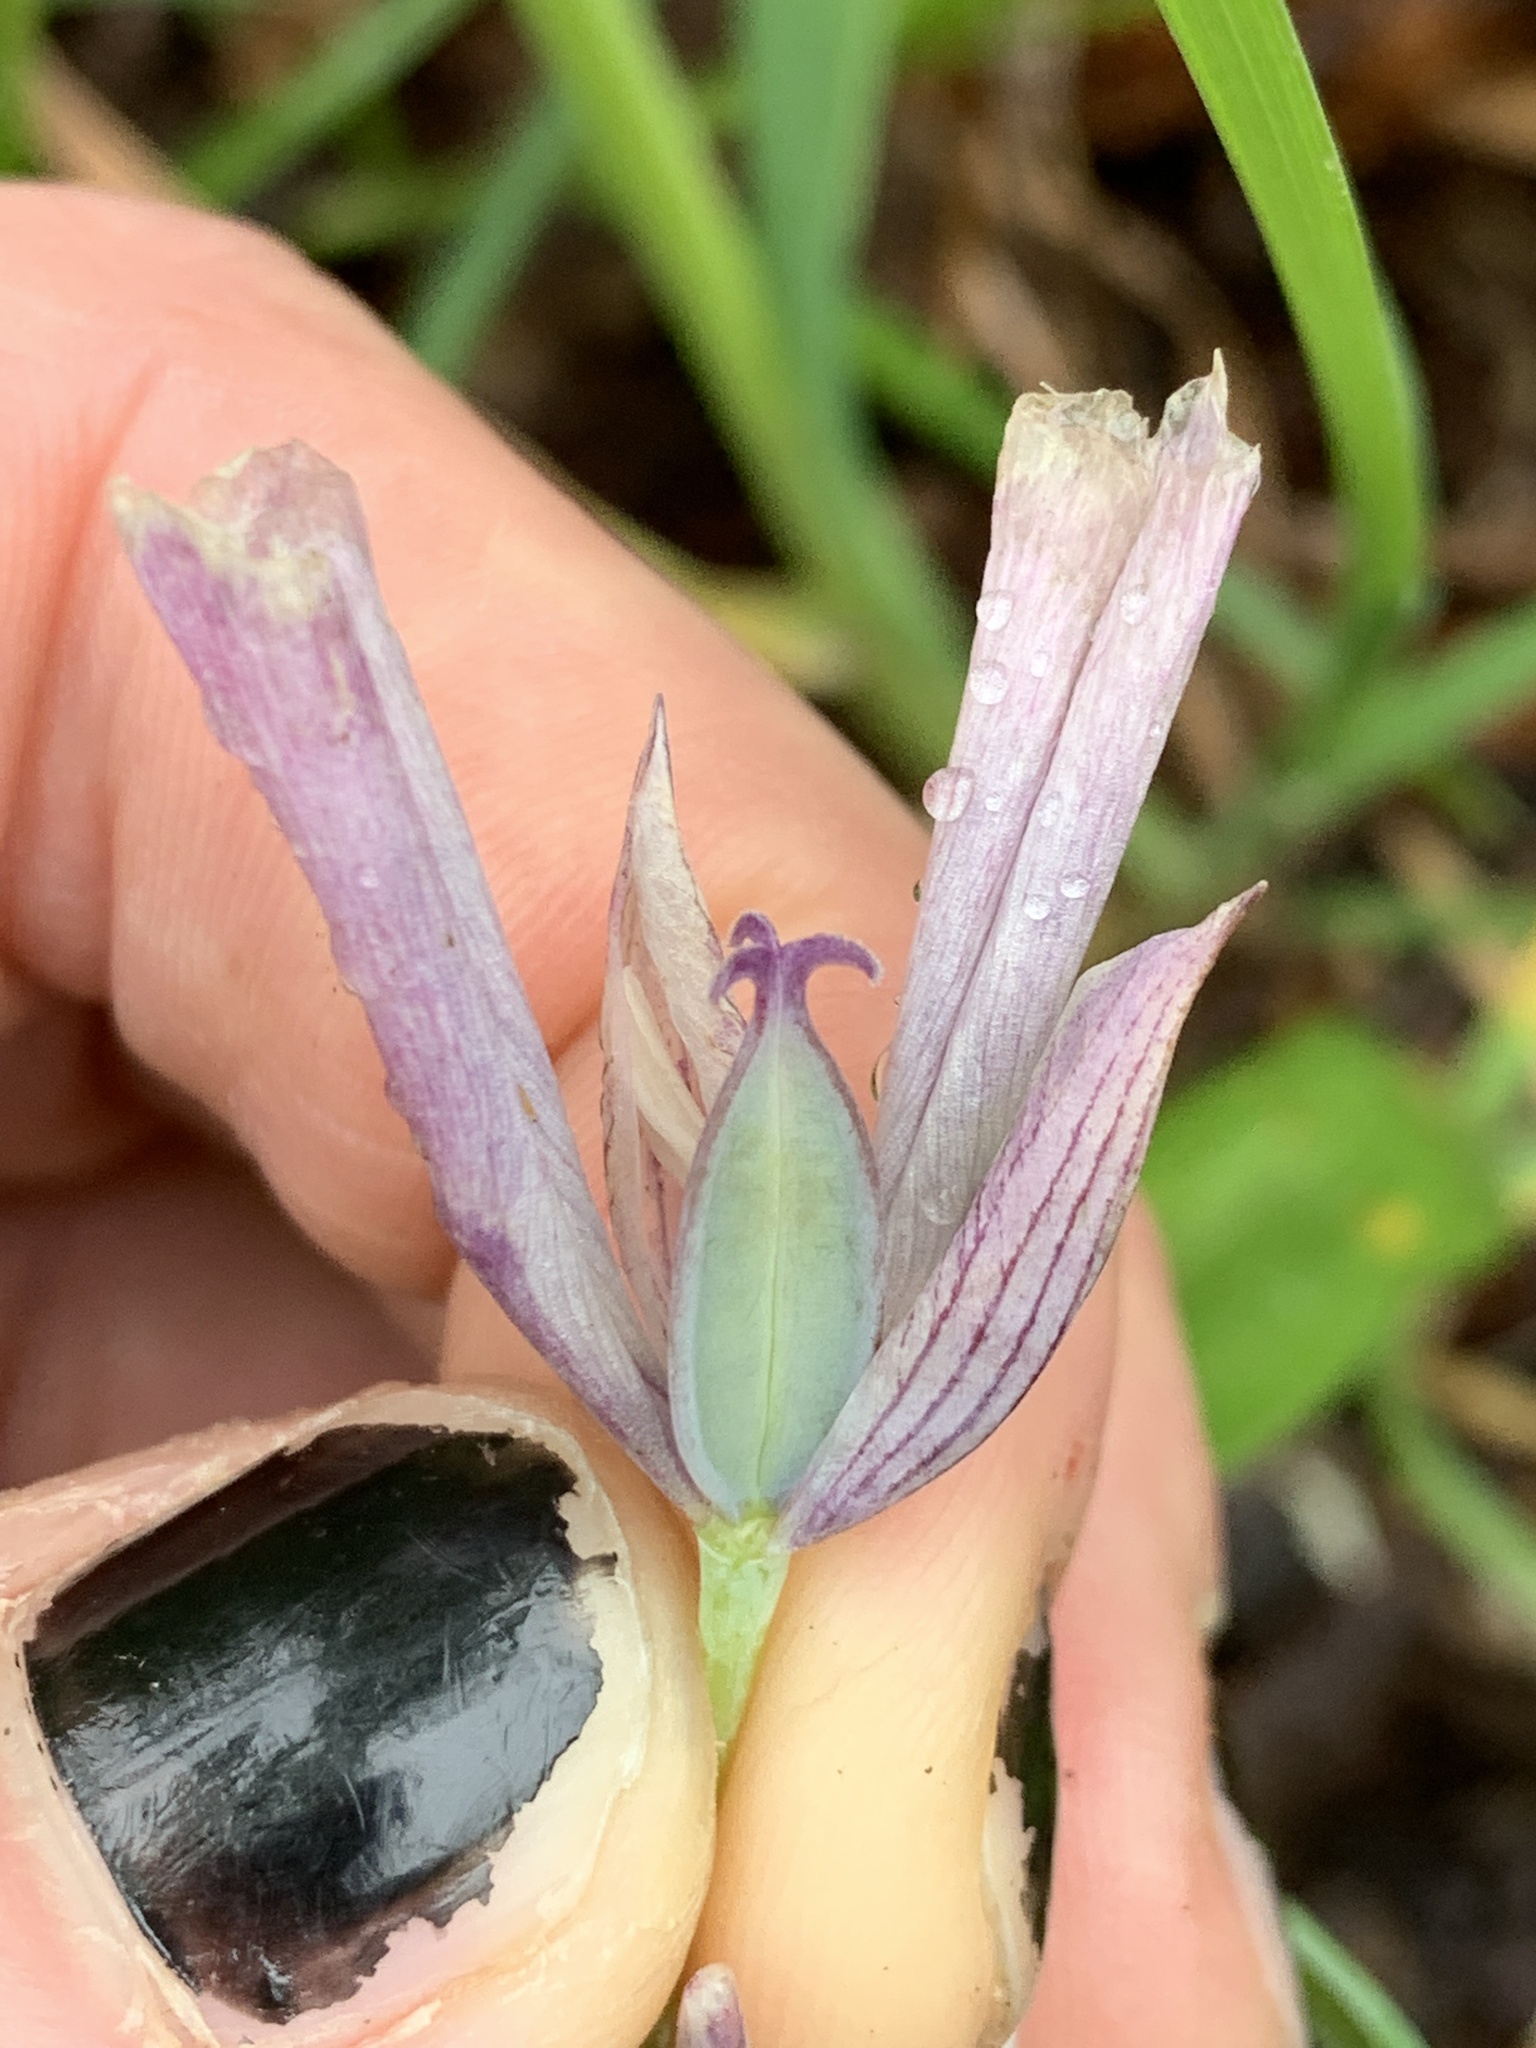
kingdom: Plantae
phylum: Tracheophyta
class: Liliopsida
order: Liliales
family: Liliaceae
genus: Calochortus
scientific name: Calochortus tolmiei
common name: Pussy-ears
